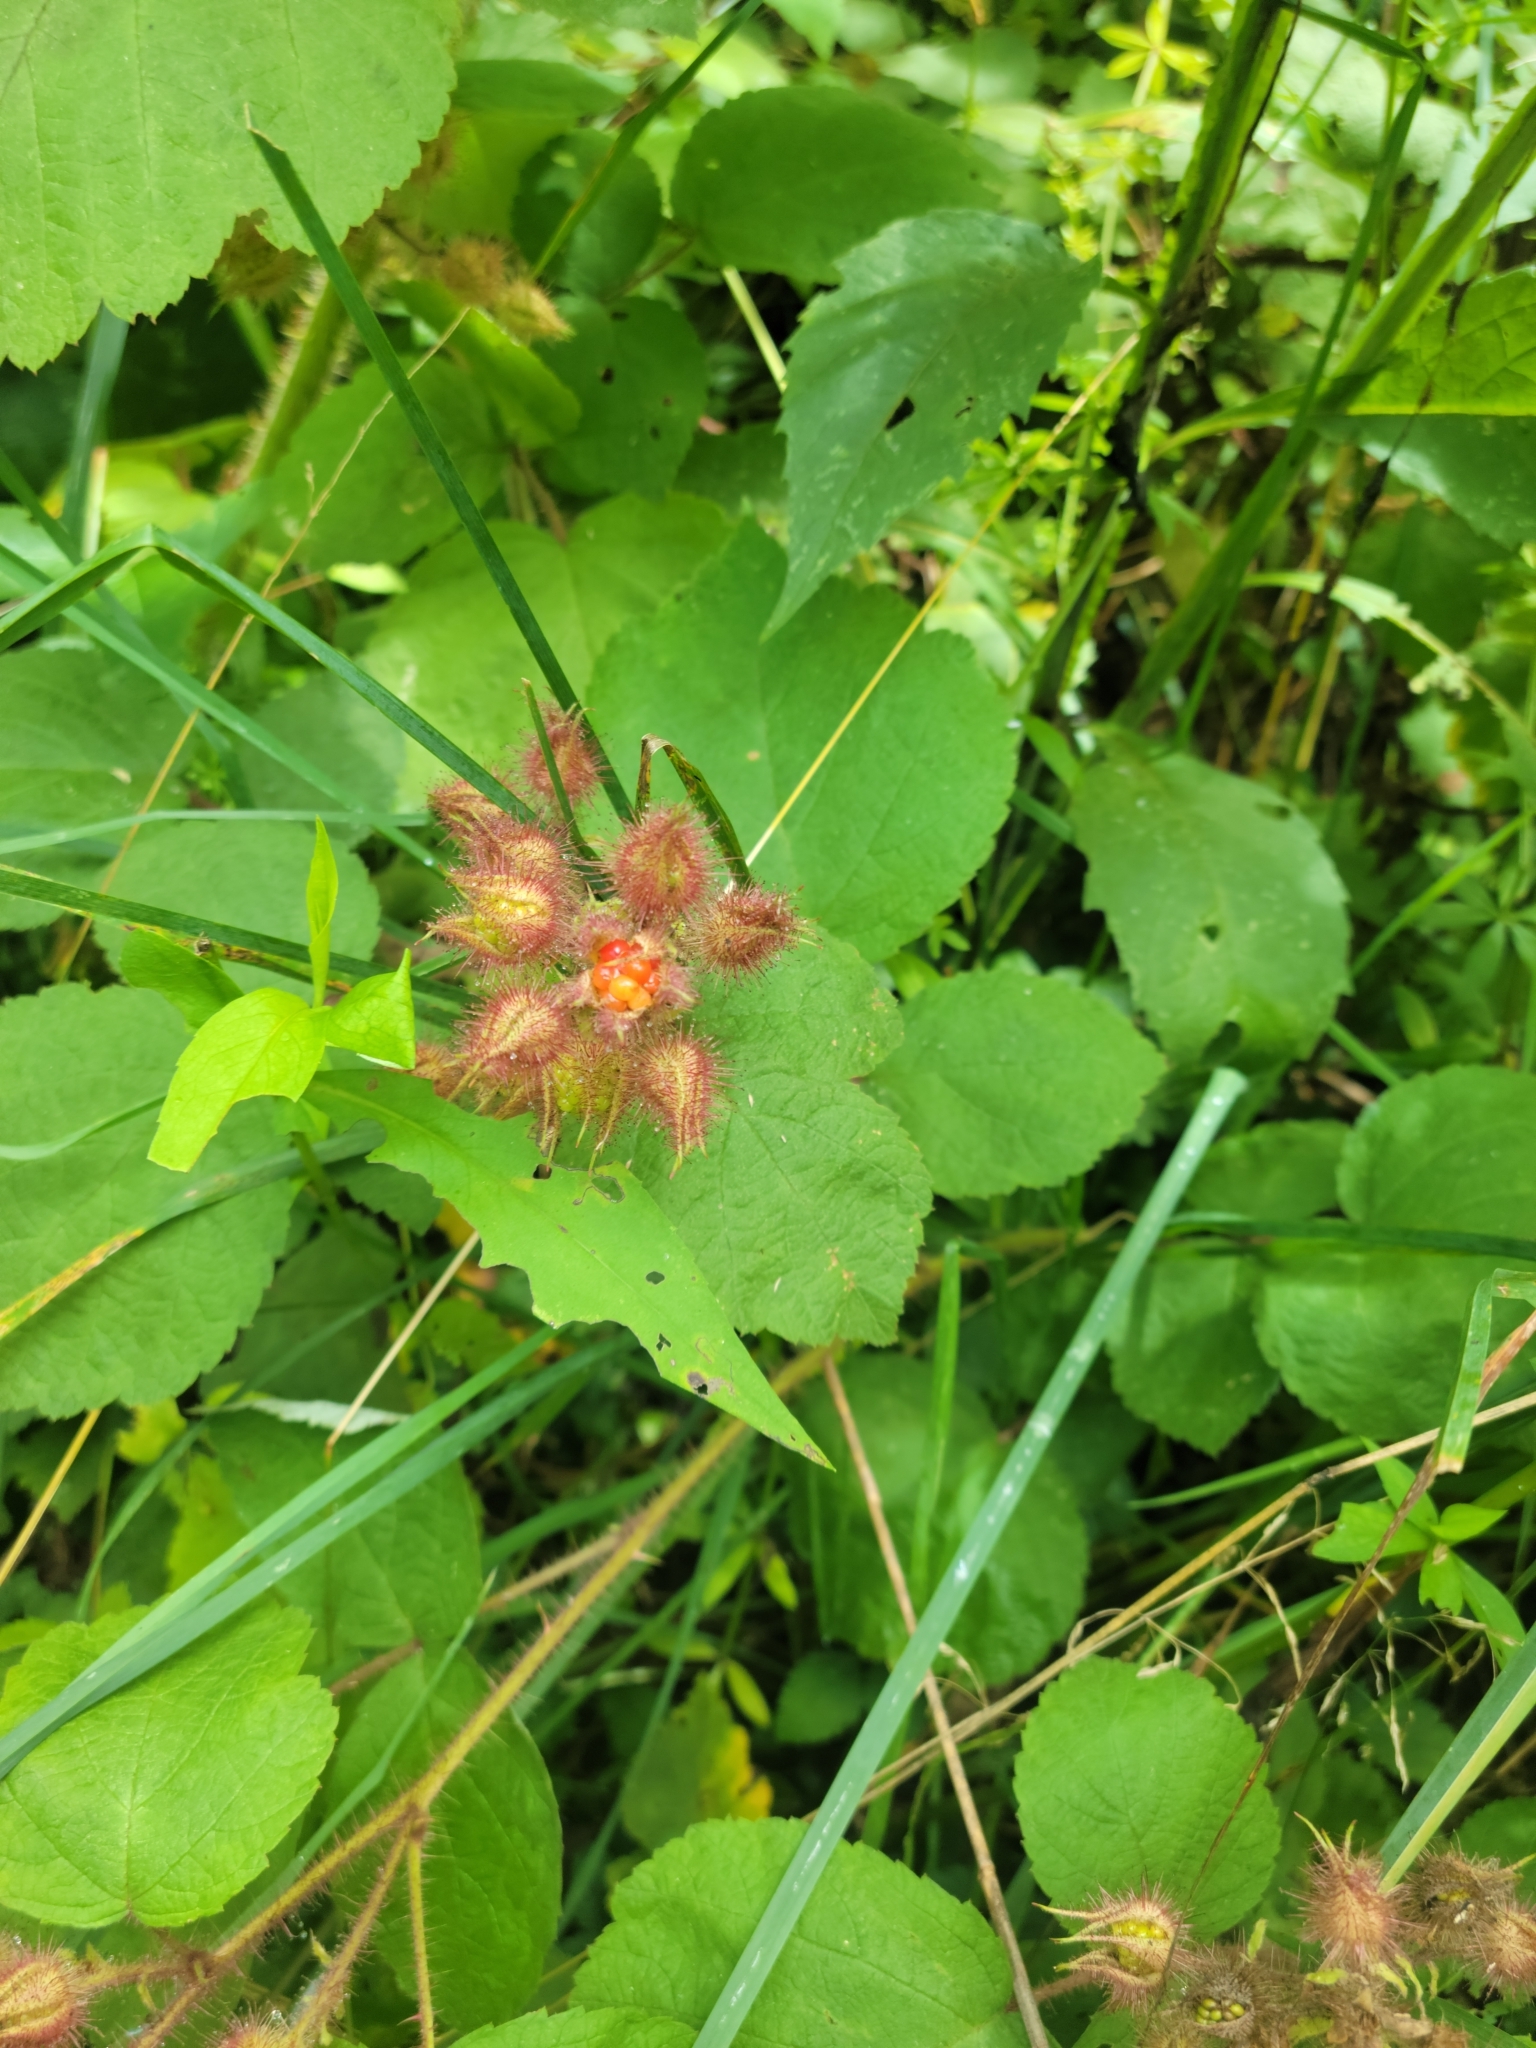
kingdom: Plantae
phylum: Tracheophyta
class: Magnoliopsida
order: Rosales
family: Rosaceae
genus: Rubus
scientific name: Rubus phoenicolasius
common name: Japanese wineberry
